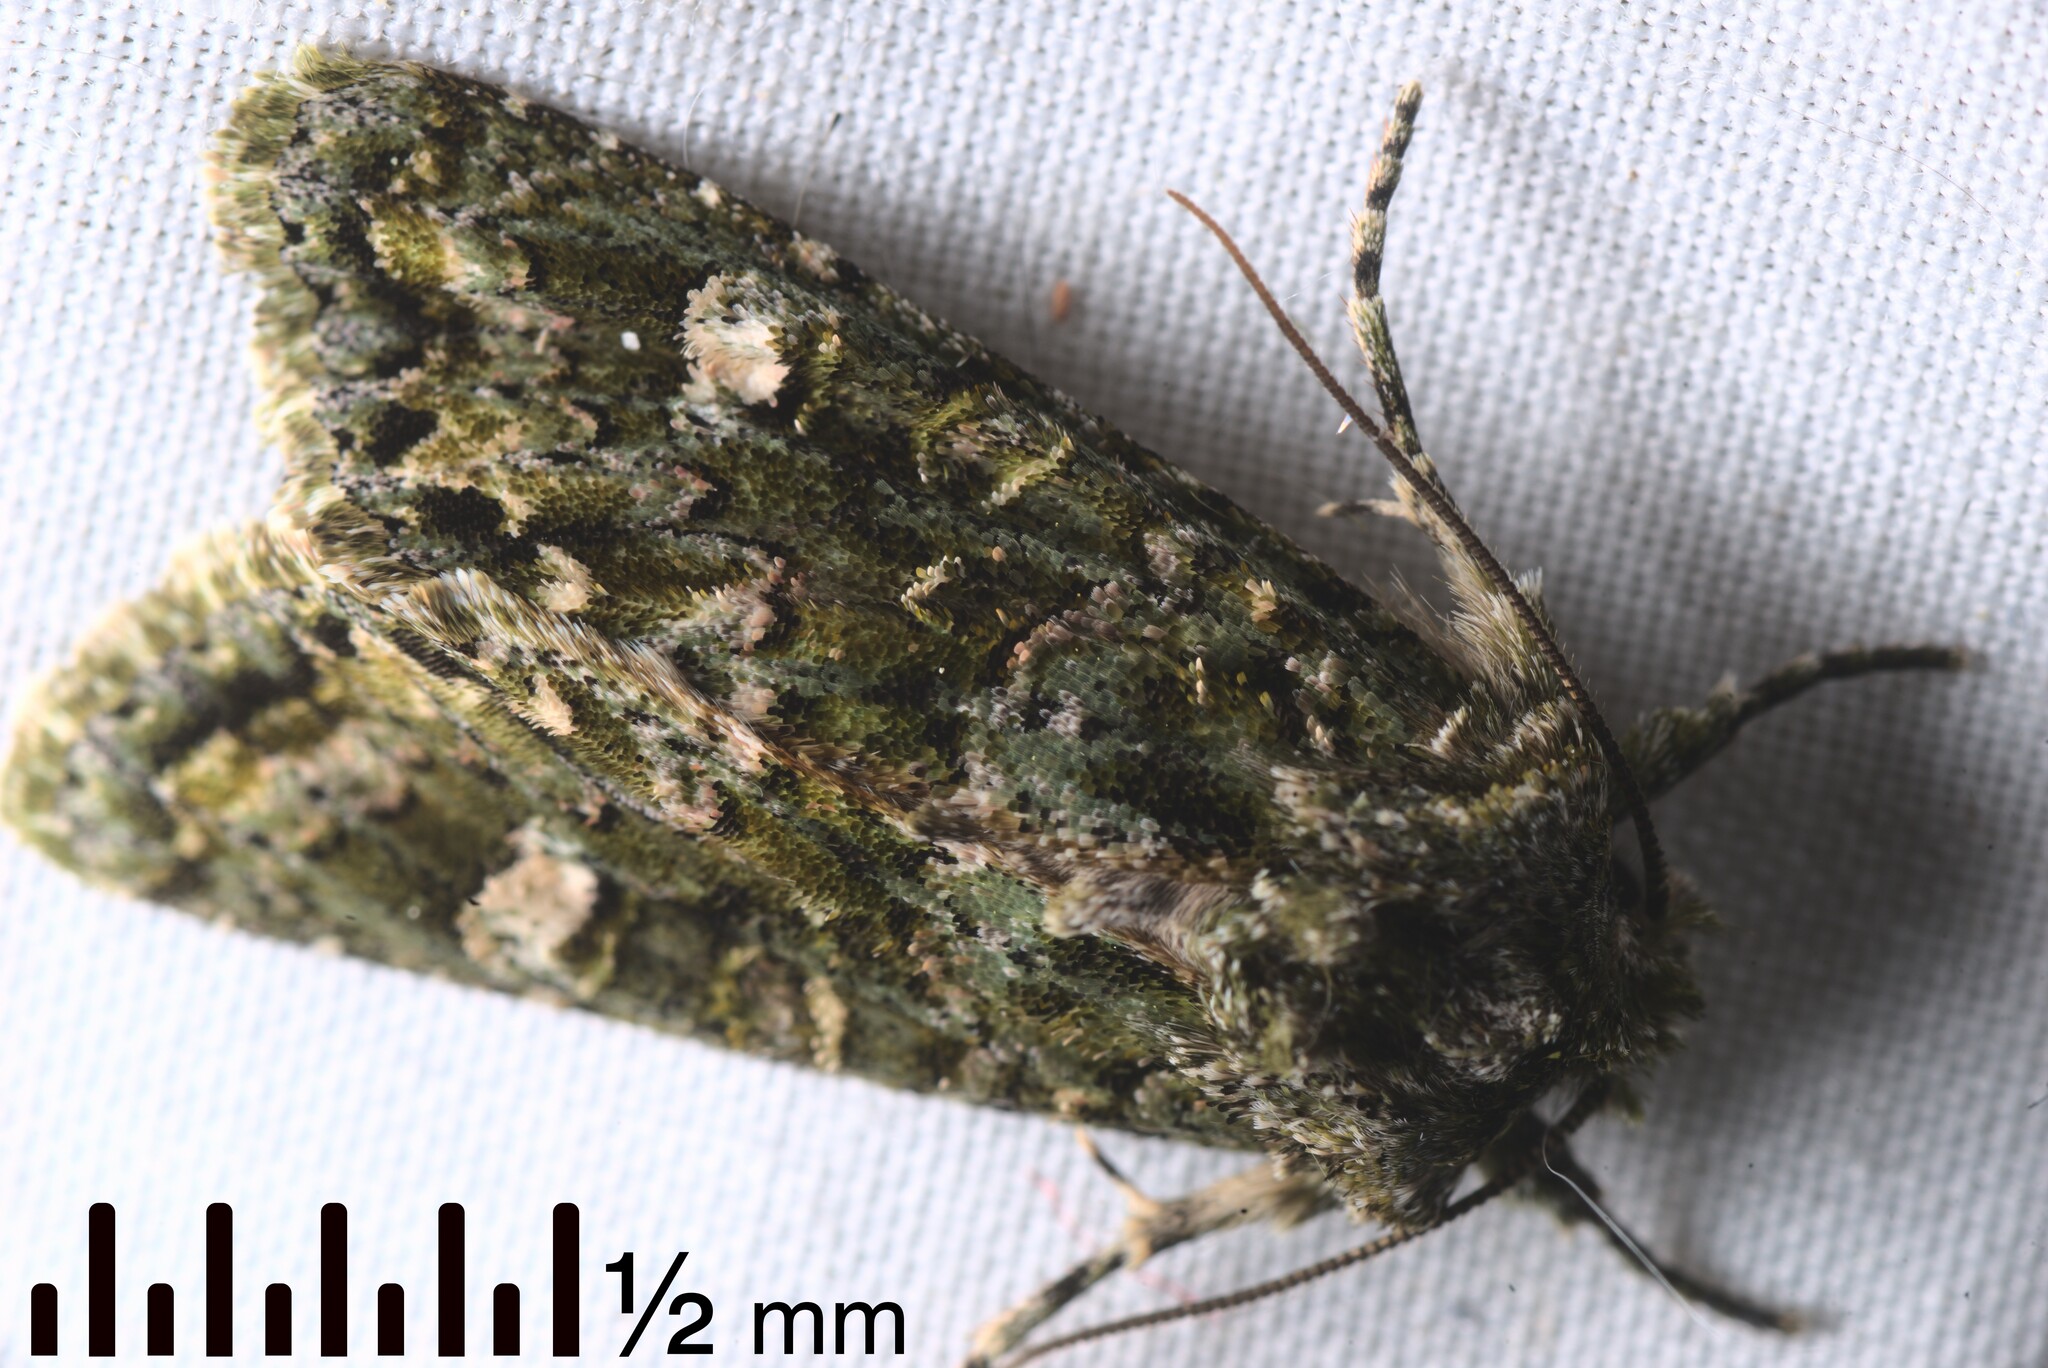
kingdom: Animalia
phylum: Arthropoda
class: Insecta
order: Lepidoptera
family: Noctuidae
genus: Ichneutica
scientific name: Ichneutica
